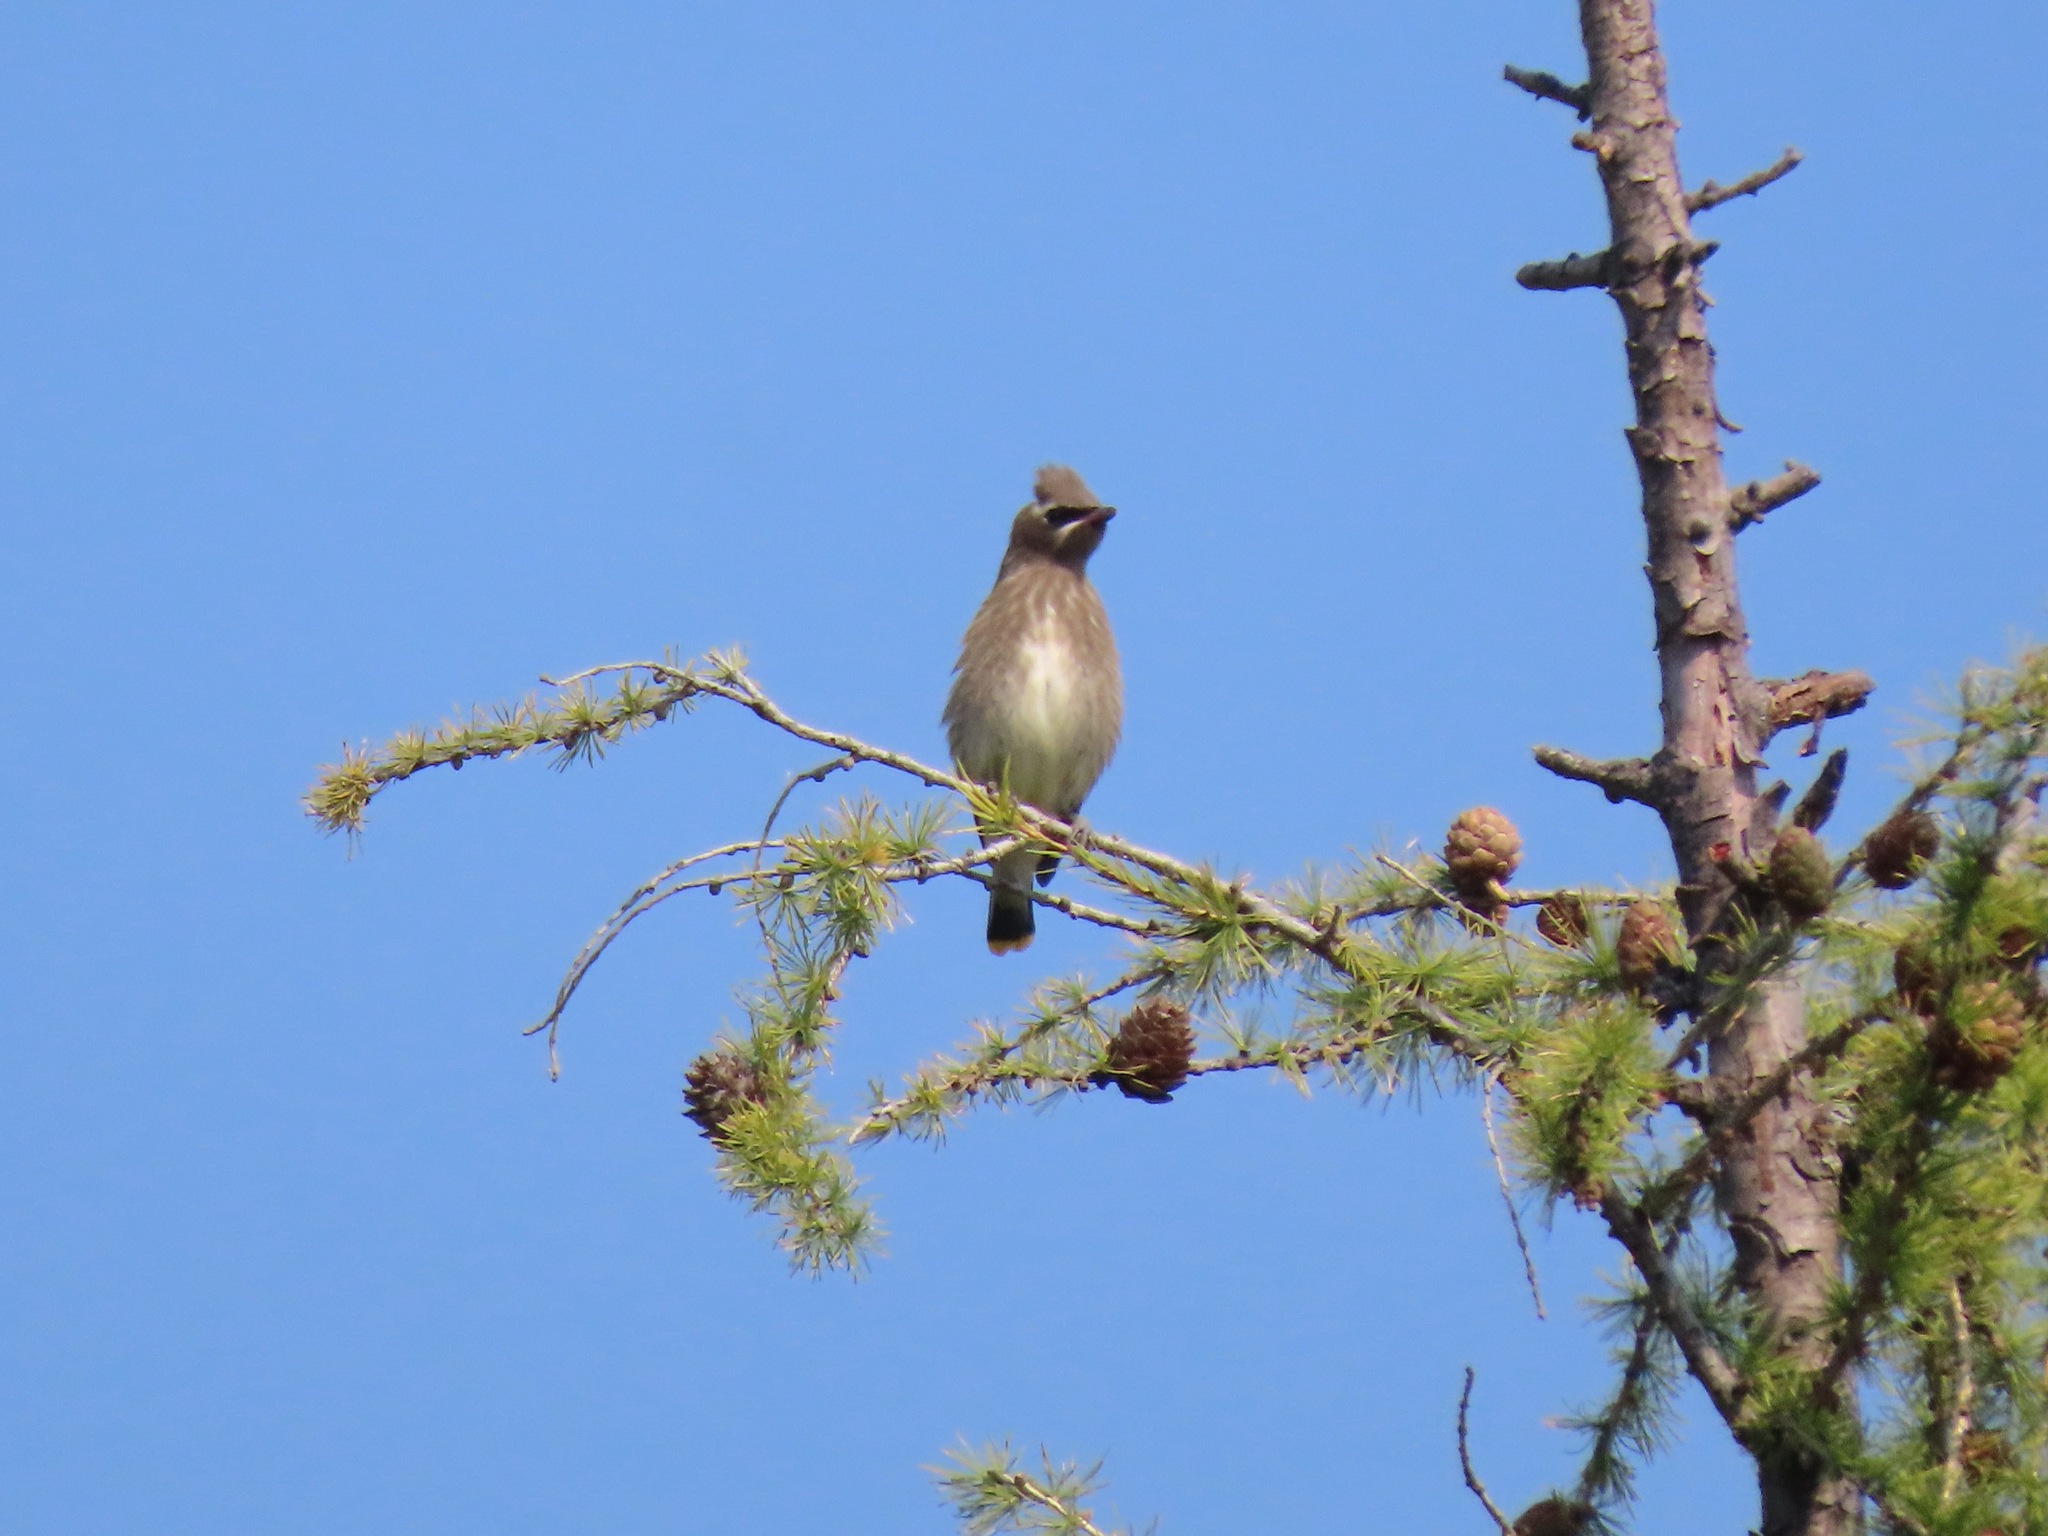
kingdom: Animalia
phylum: Chordata
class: Aves
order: Passeriformes
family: Bombycillidae
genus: Bombycilla
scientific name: Bombycilla cedrorum
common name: Cedar waxwing
